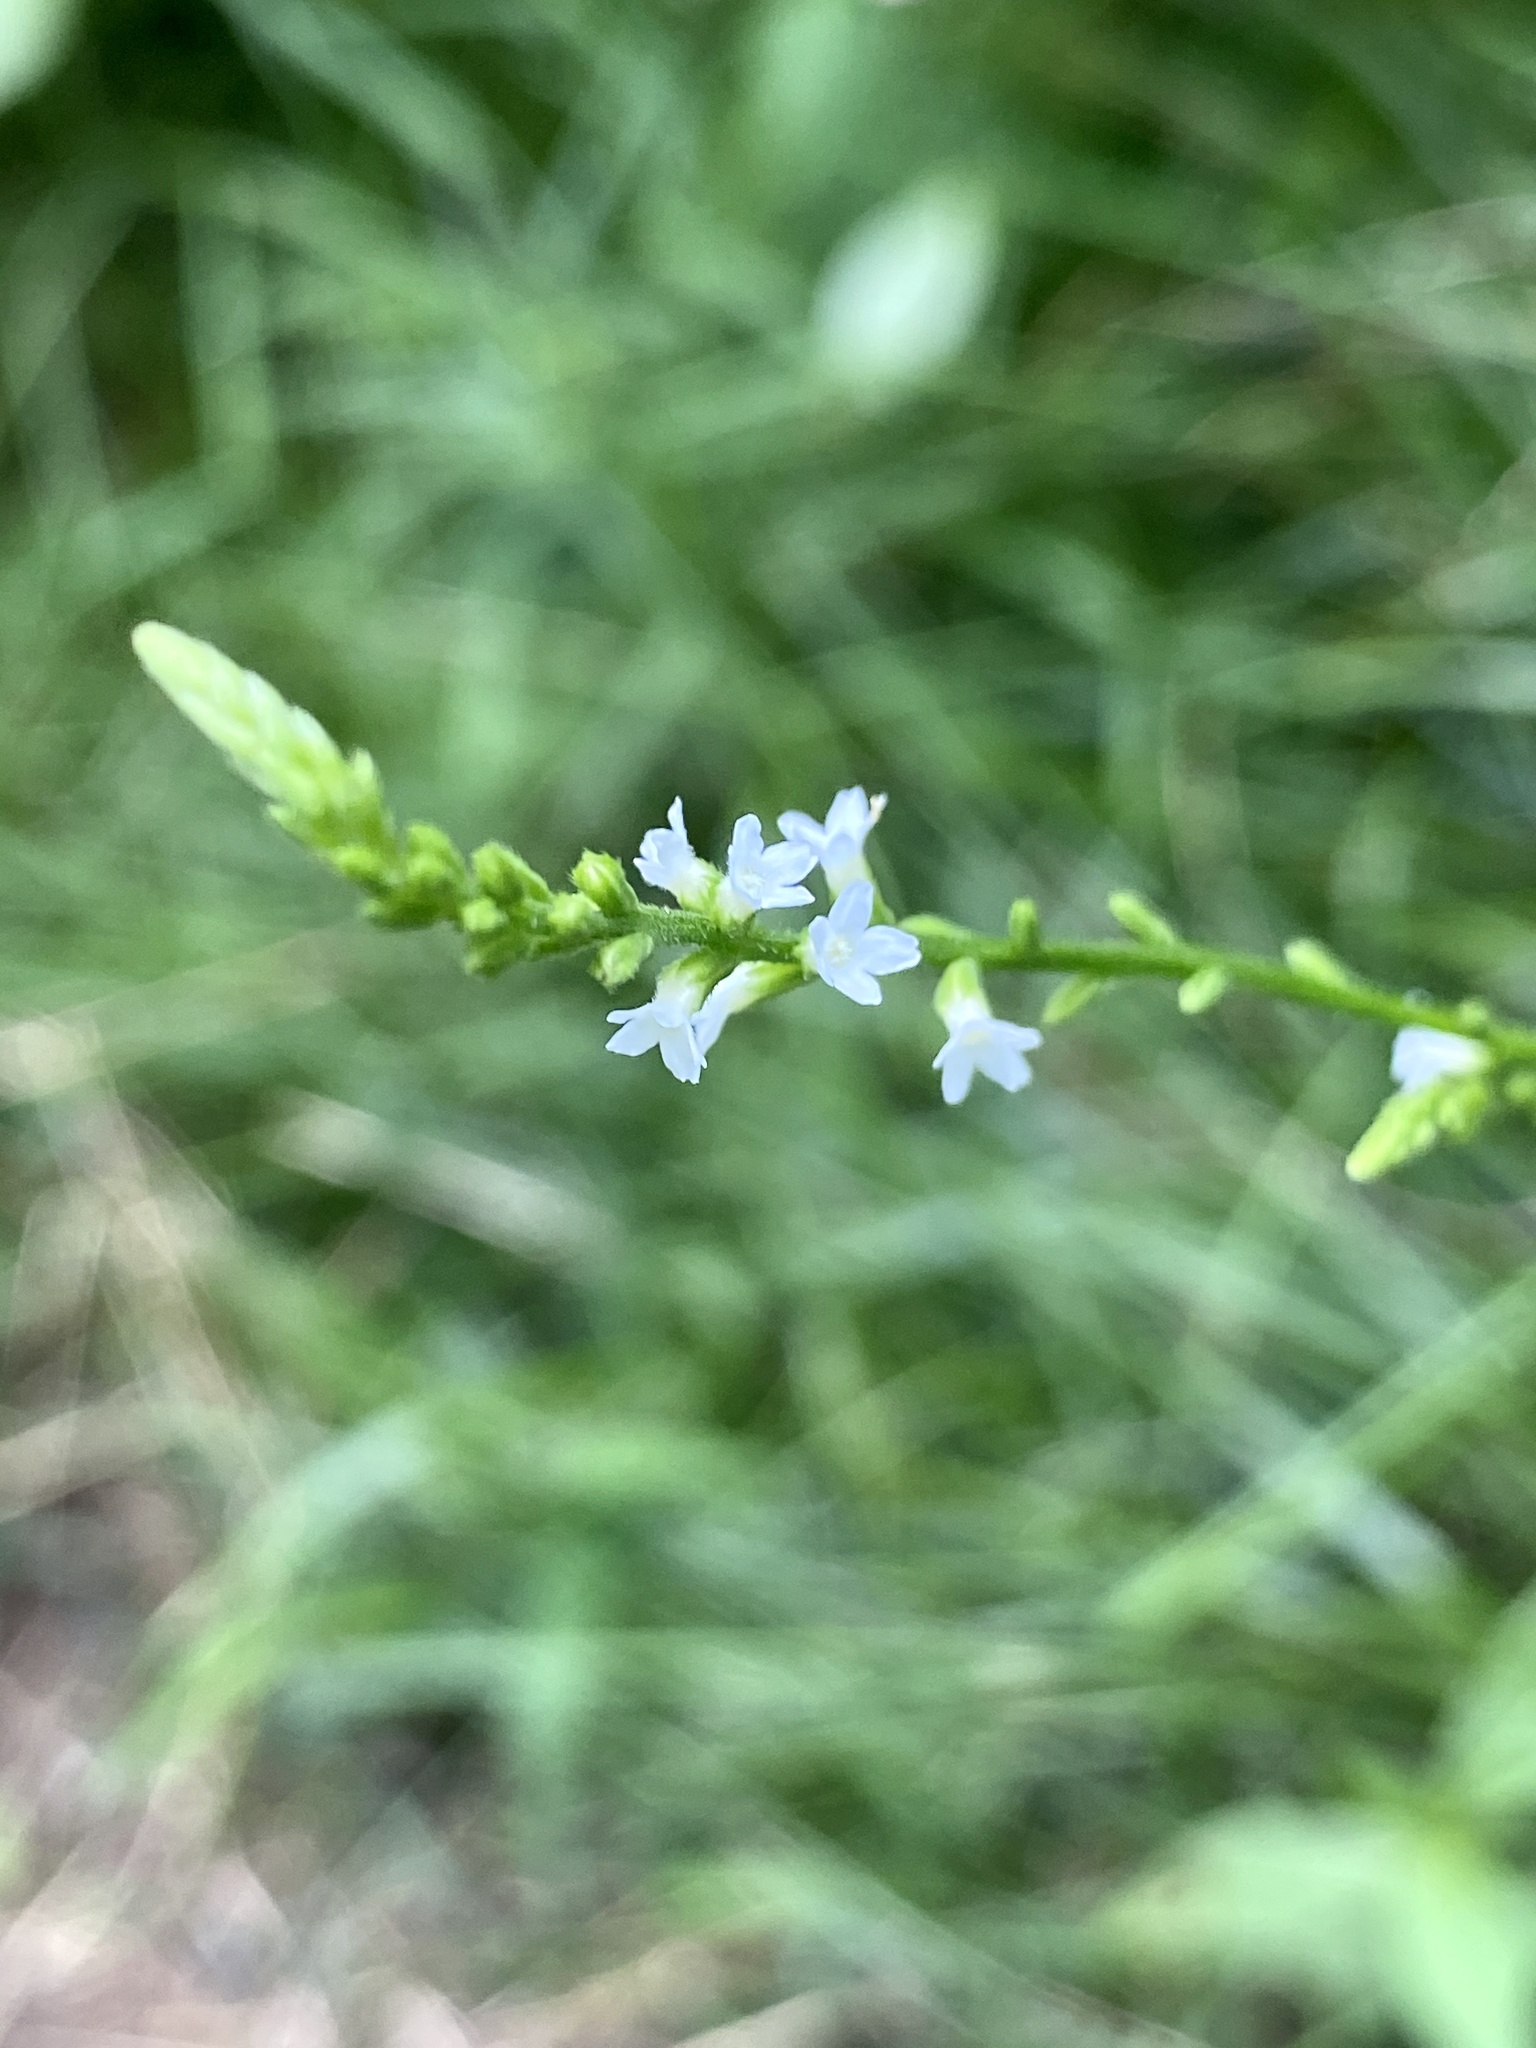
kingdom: Plantae
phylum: Tracheophyta
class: Magnoliopsida
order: Lamiales
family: Verbenaceae
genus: Verbena
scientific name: Verbena urticifolia
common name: Nettle-leaved vervain
